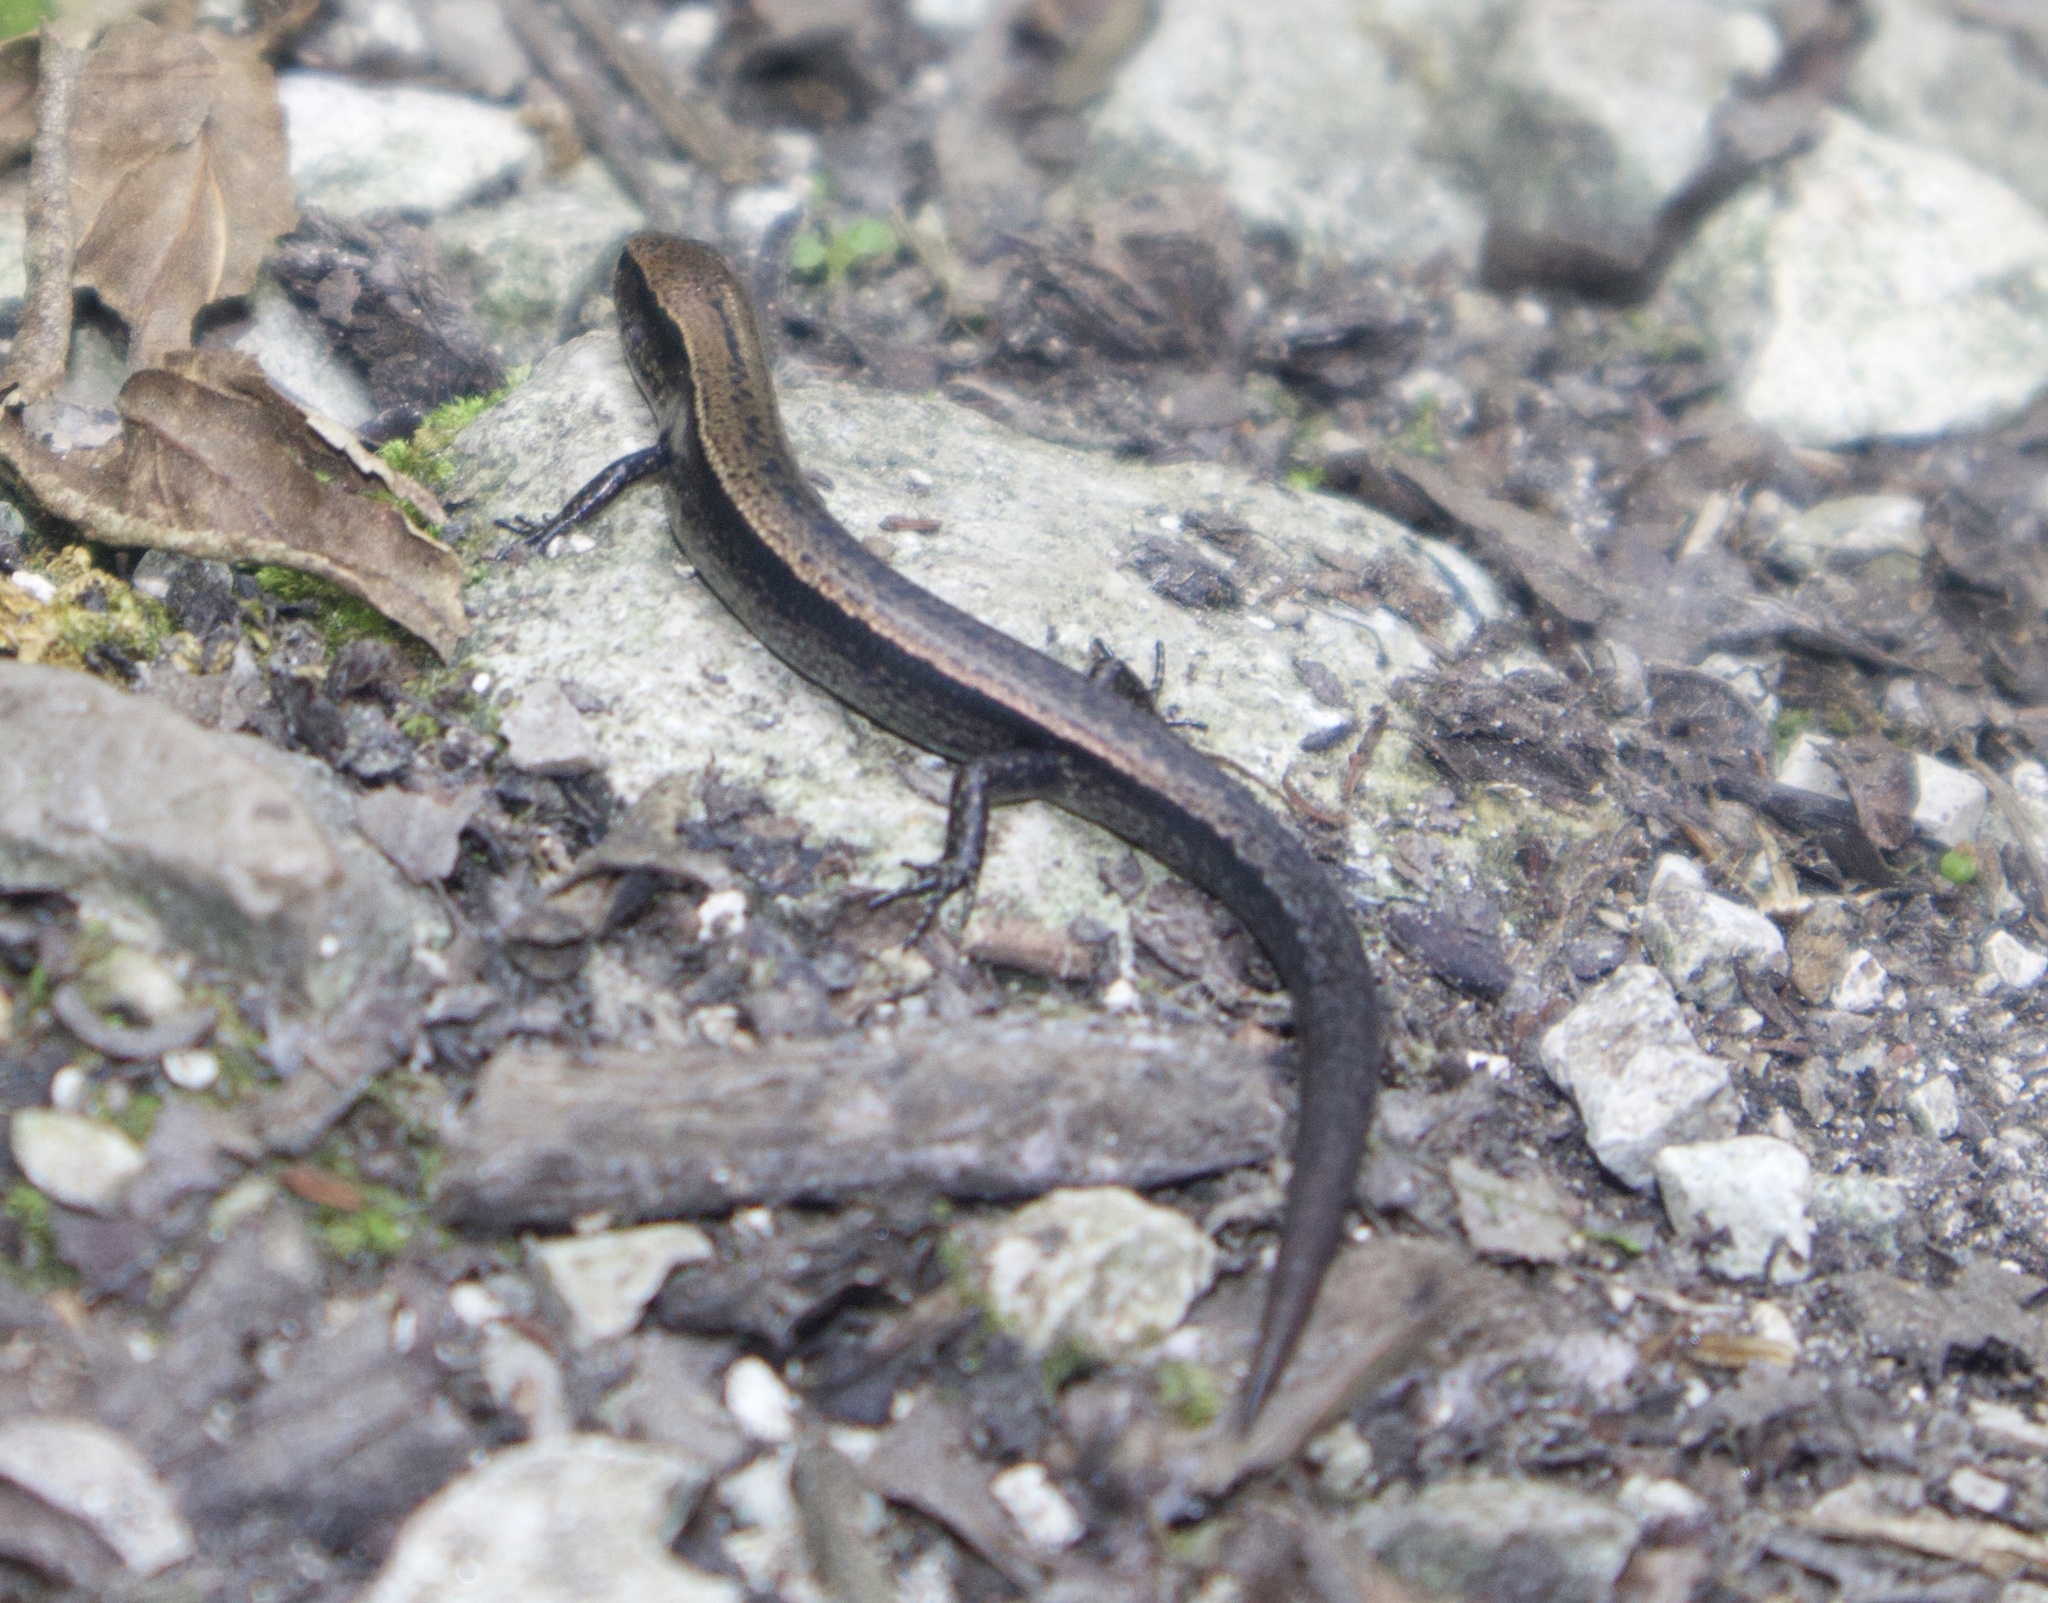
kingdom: Animalia
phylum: Chordata
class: Squamata
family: Scincidae
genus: Scincella
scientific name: Scincella gemmingeri
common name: Cope’s forest ground skink
